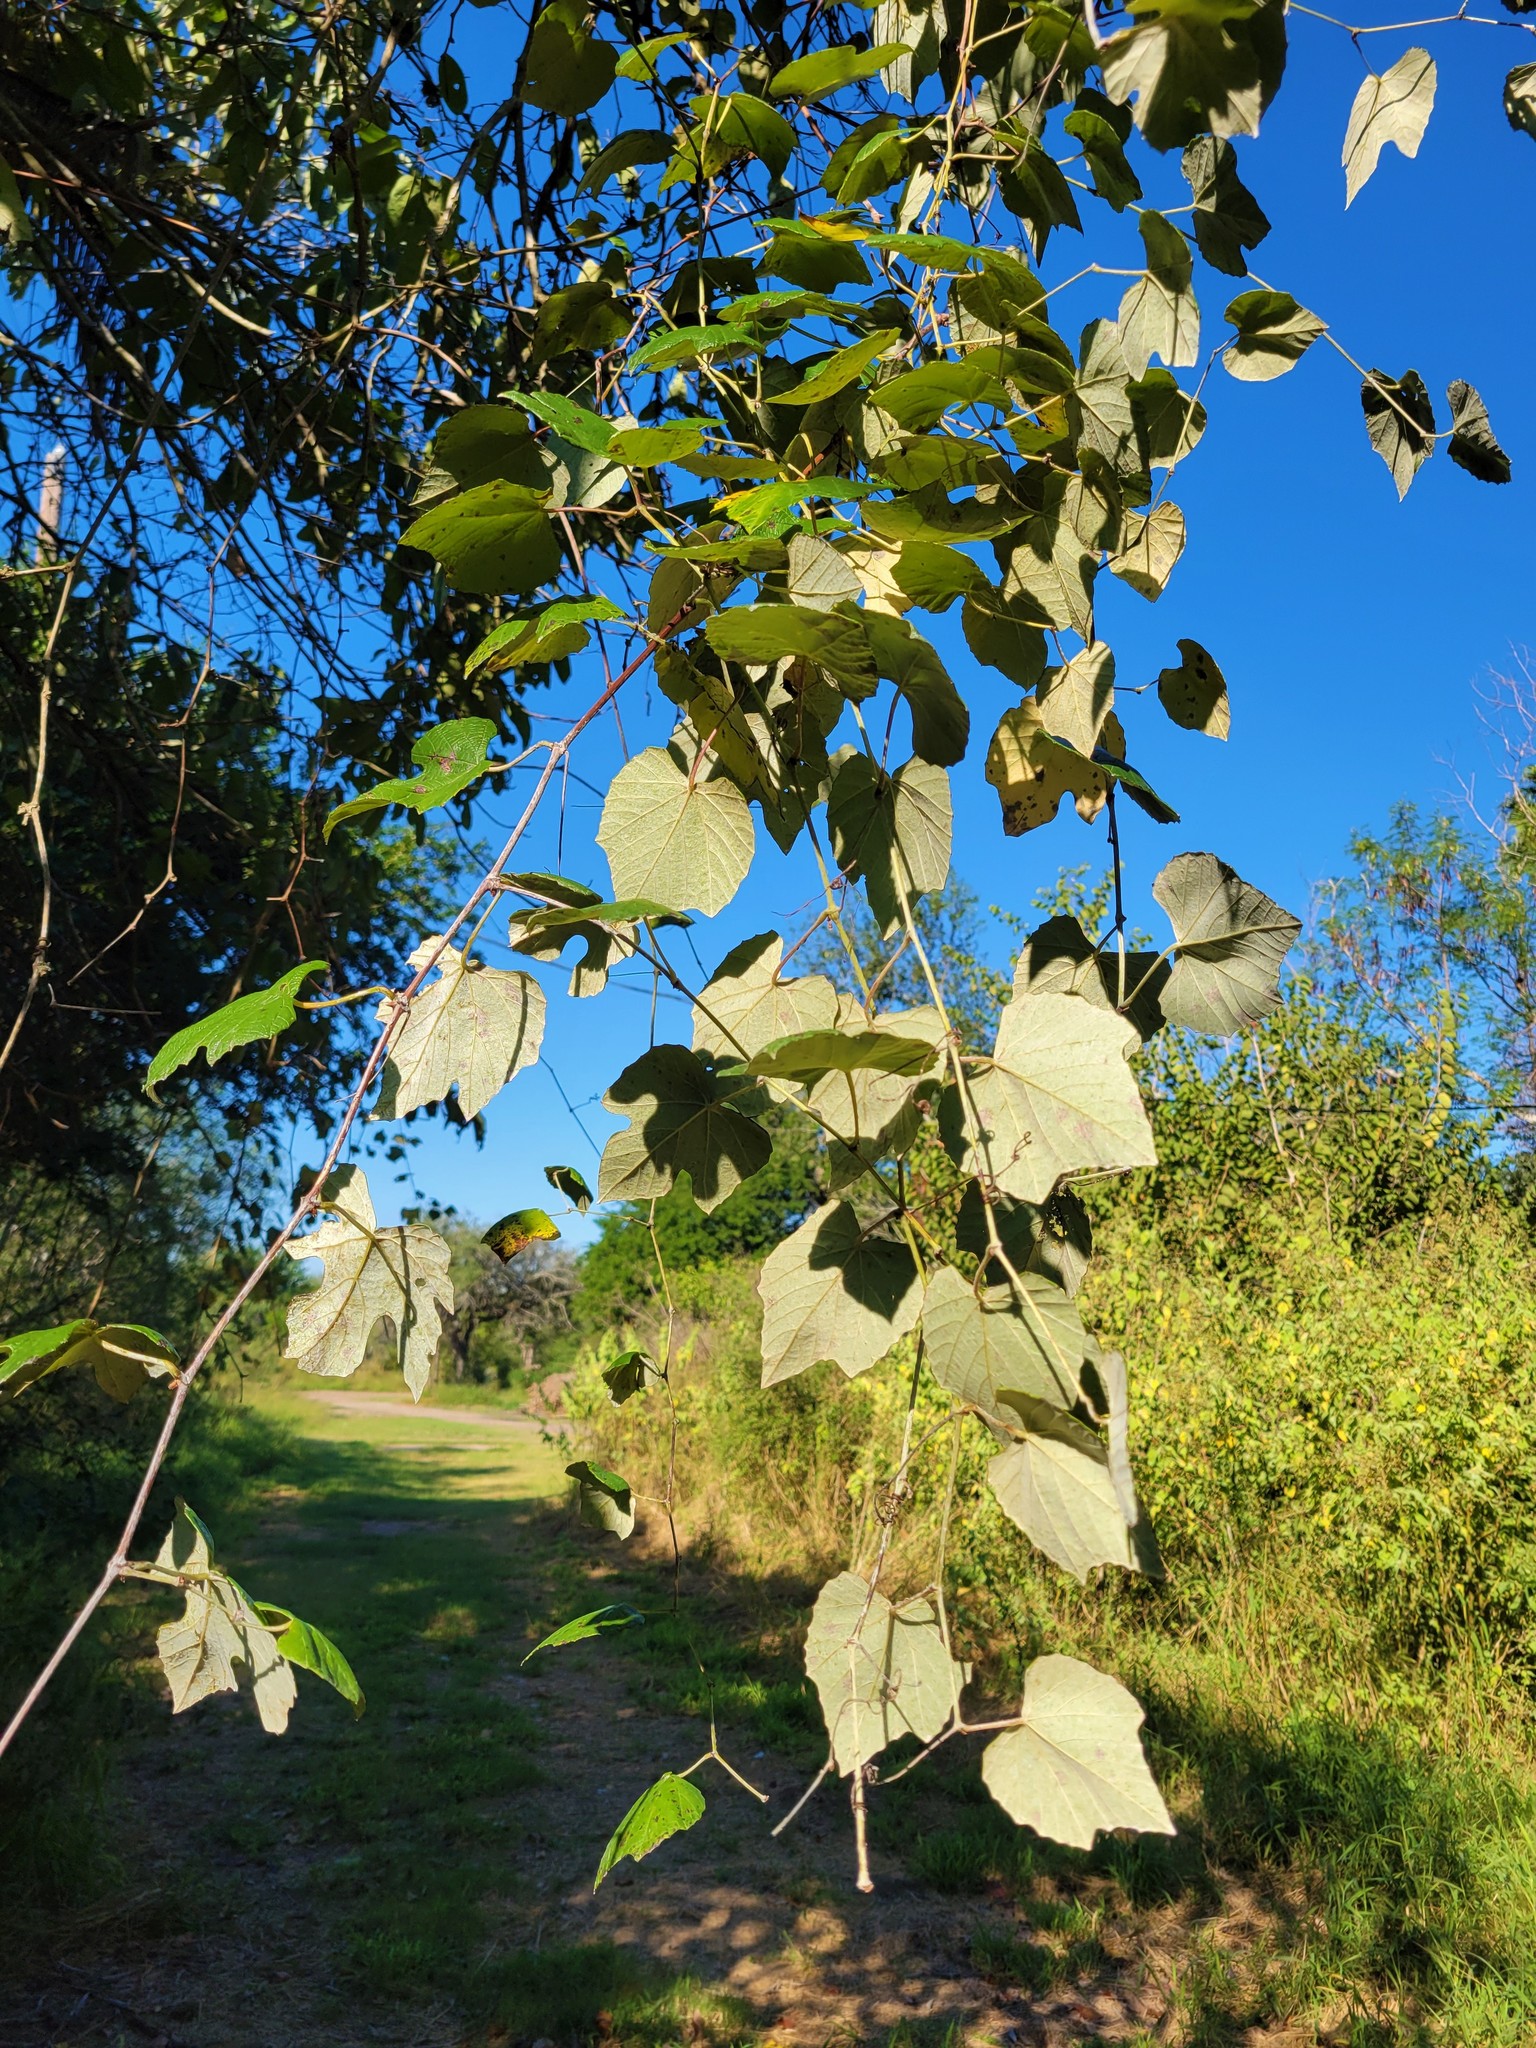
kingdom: Plantae
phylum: Tracheophyta
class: Magnoliopsida
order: Vitales
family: Vitaceae
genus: Vitis
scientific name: Vitis mustangensis
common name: Mustang grape
